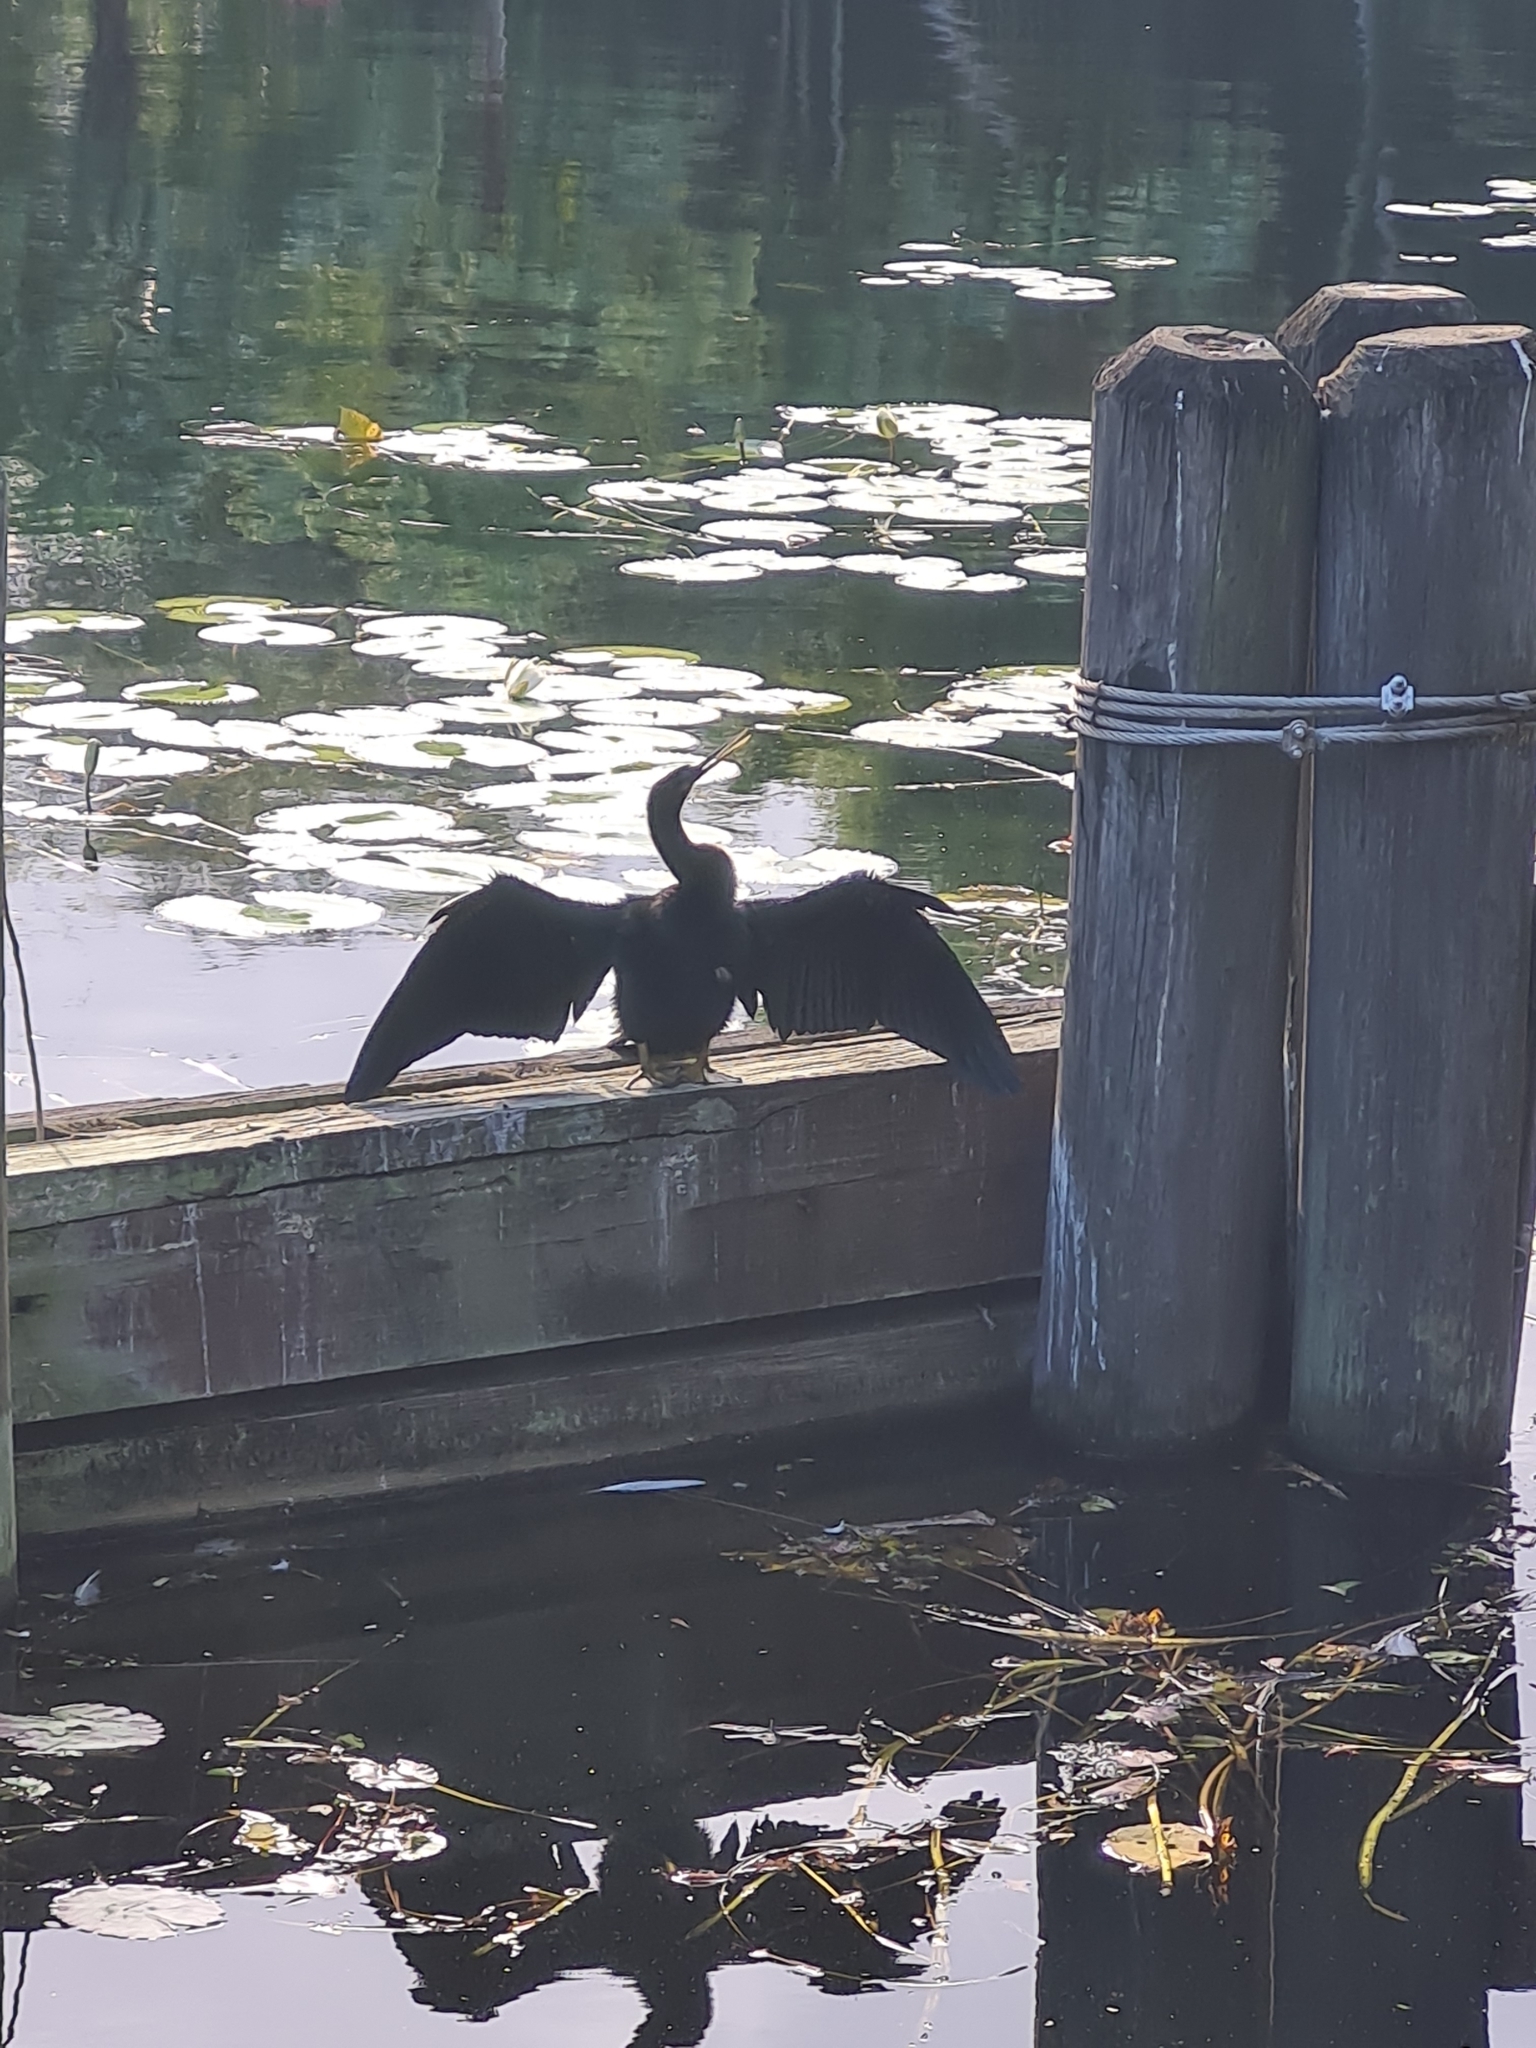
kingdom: Animalia
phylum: Chordata
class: Aves
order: Suliformes
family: Anhingidae
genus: Anhinga
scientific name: Anhinga anhinga
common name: Anhinga
